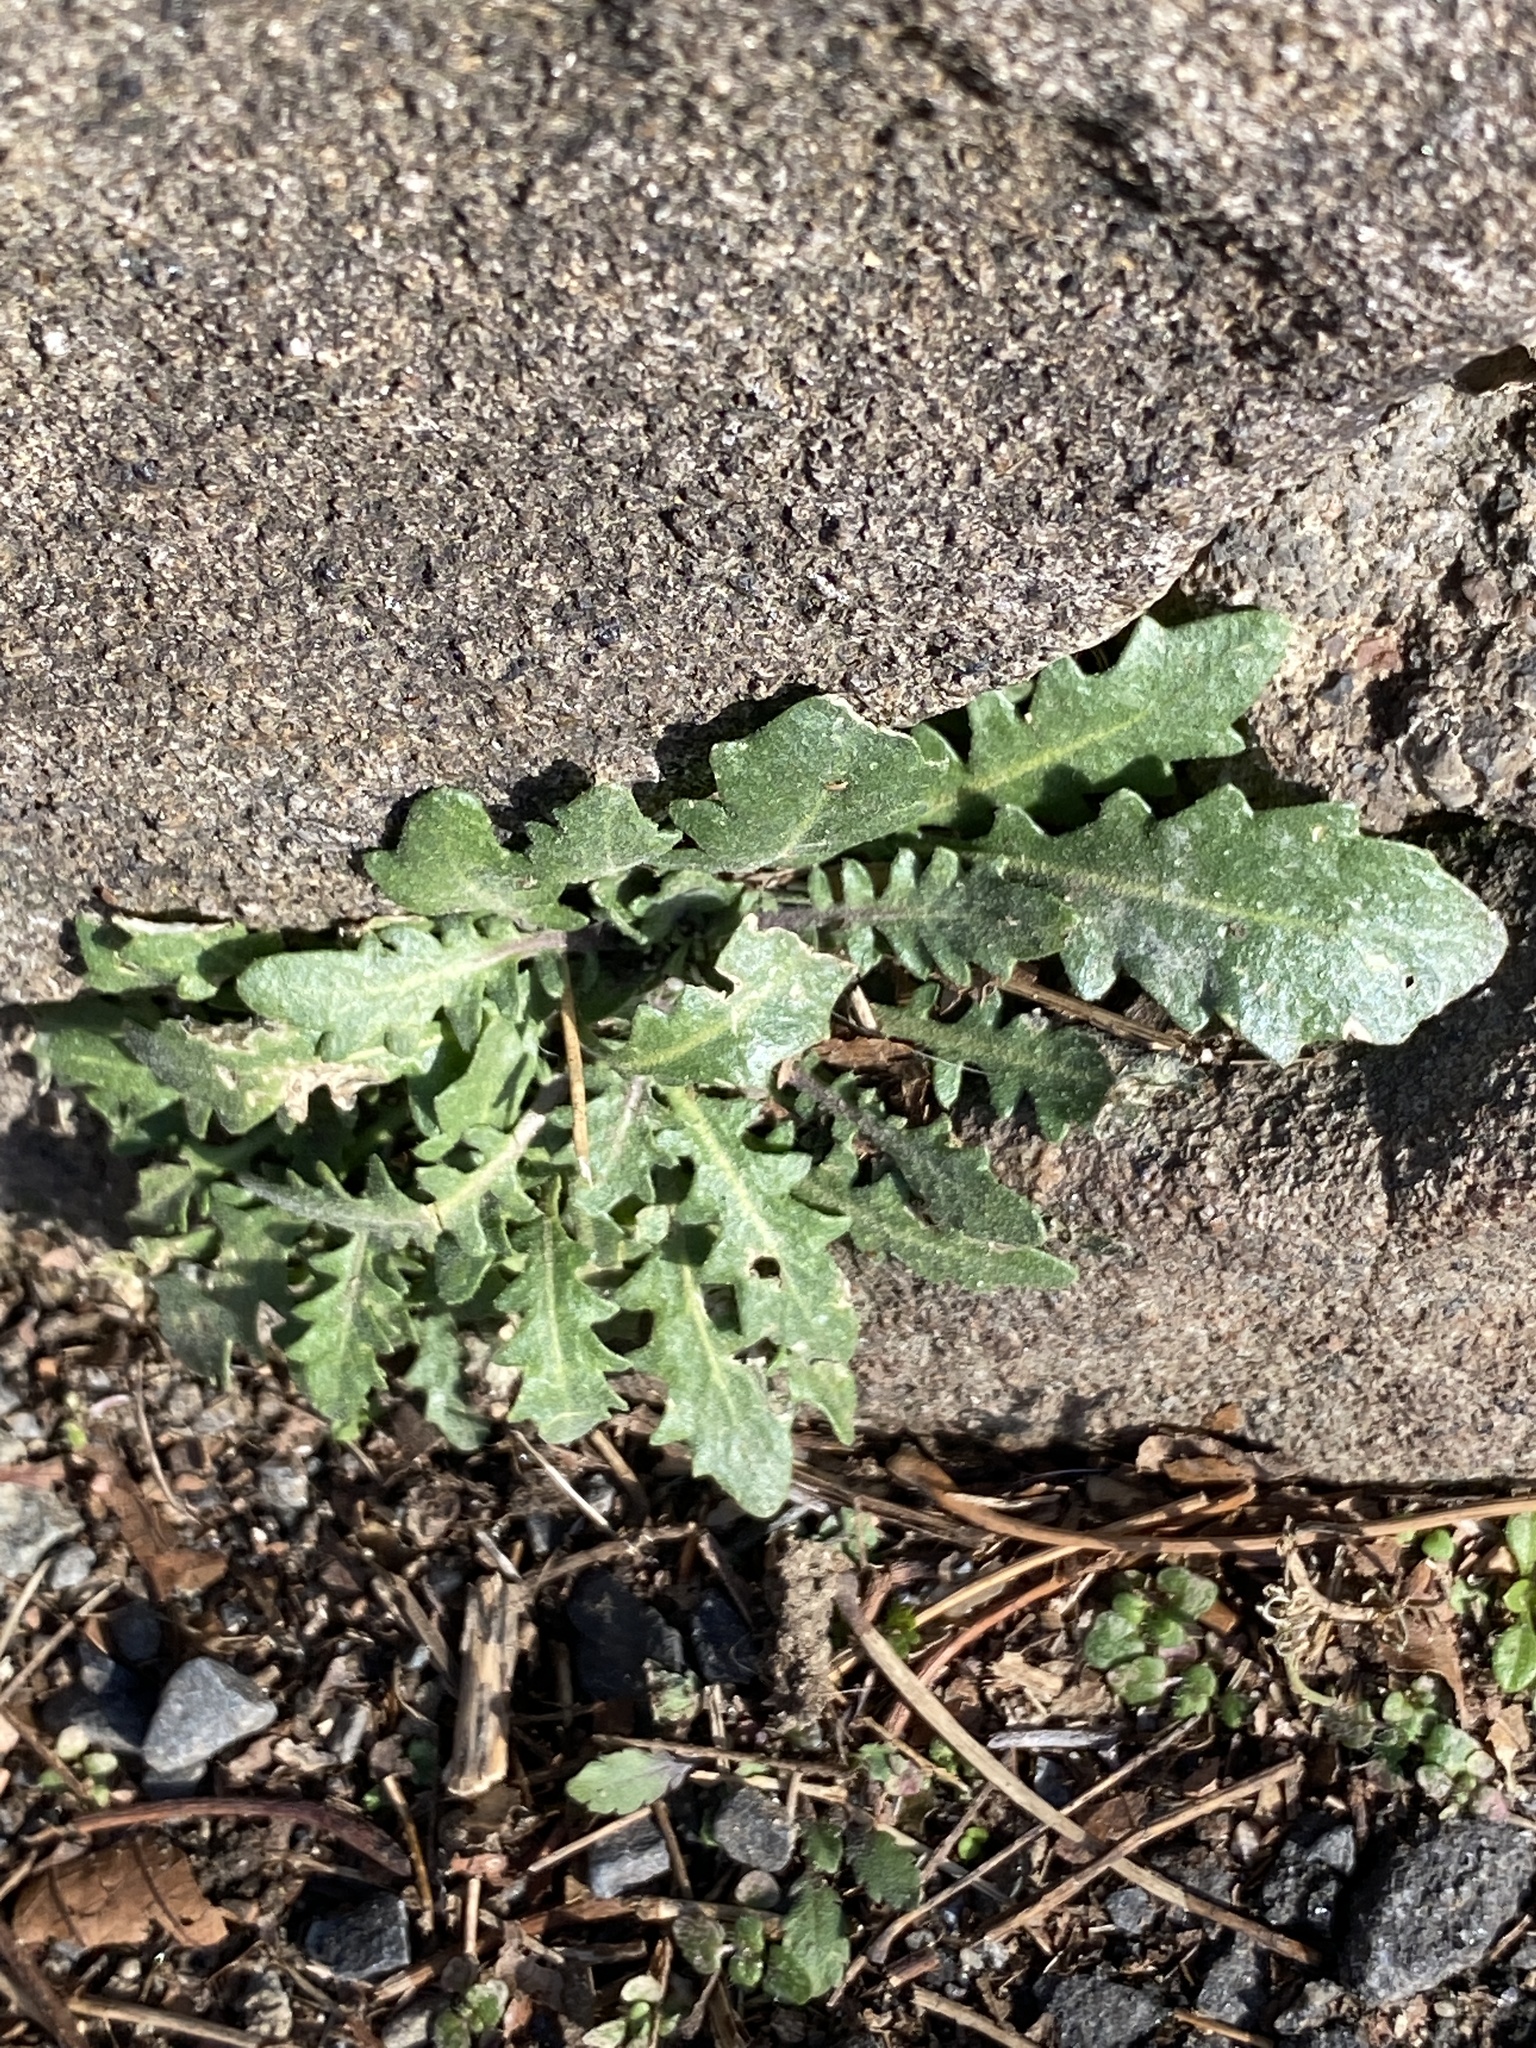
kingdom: Plantae
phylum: Tracheophyta
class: Magnoliopsida
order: Brassicales
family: Brassicaceae
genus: Arabidopsis
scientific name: Arabidopsis lyrata
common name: Lyrate rockcress
